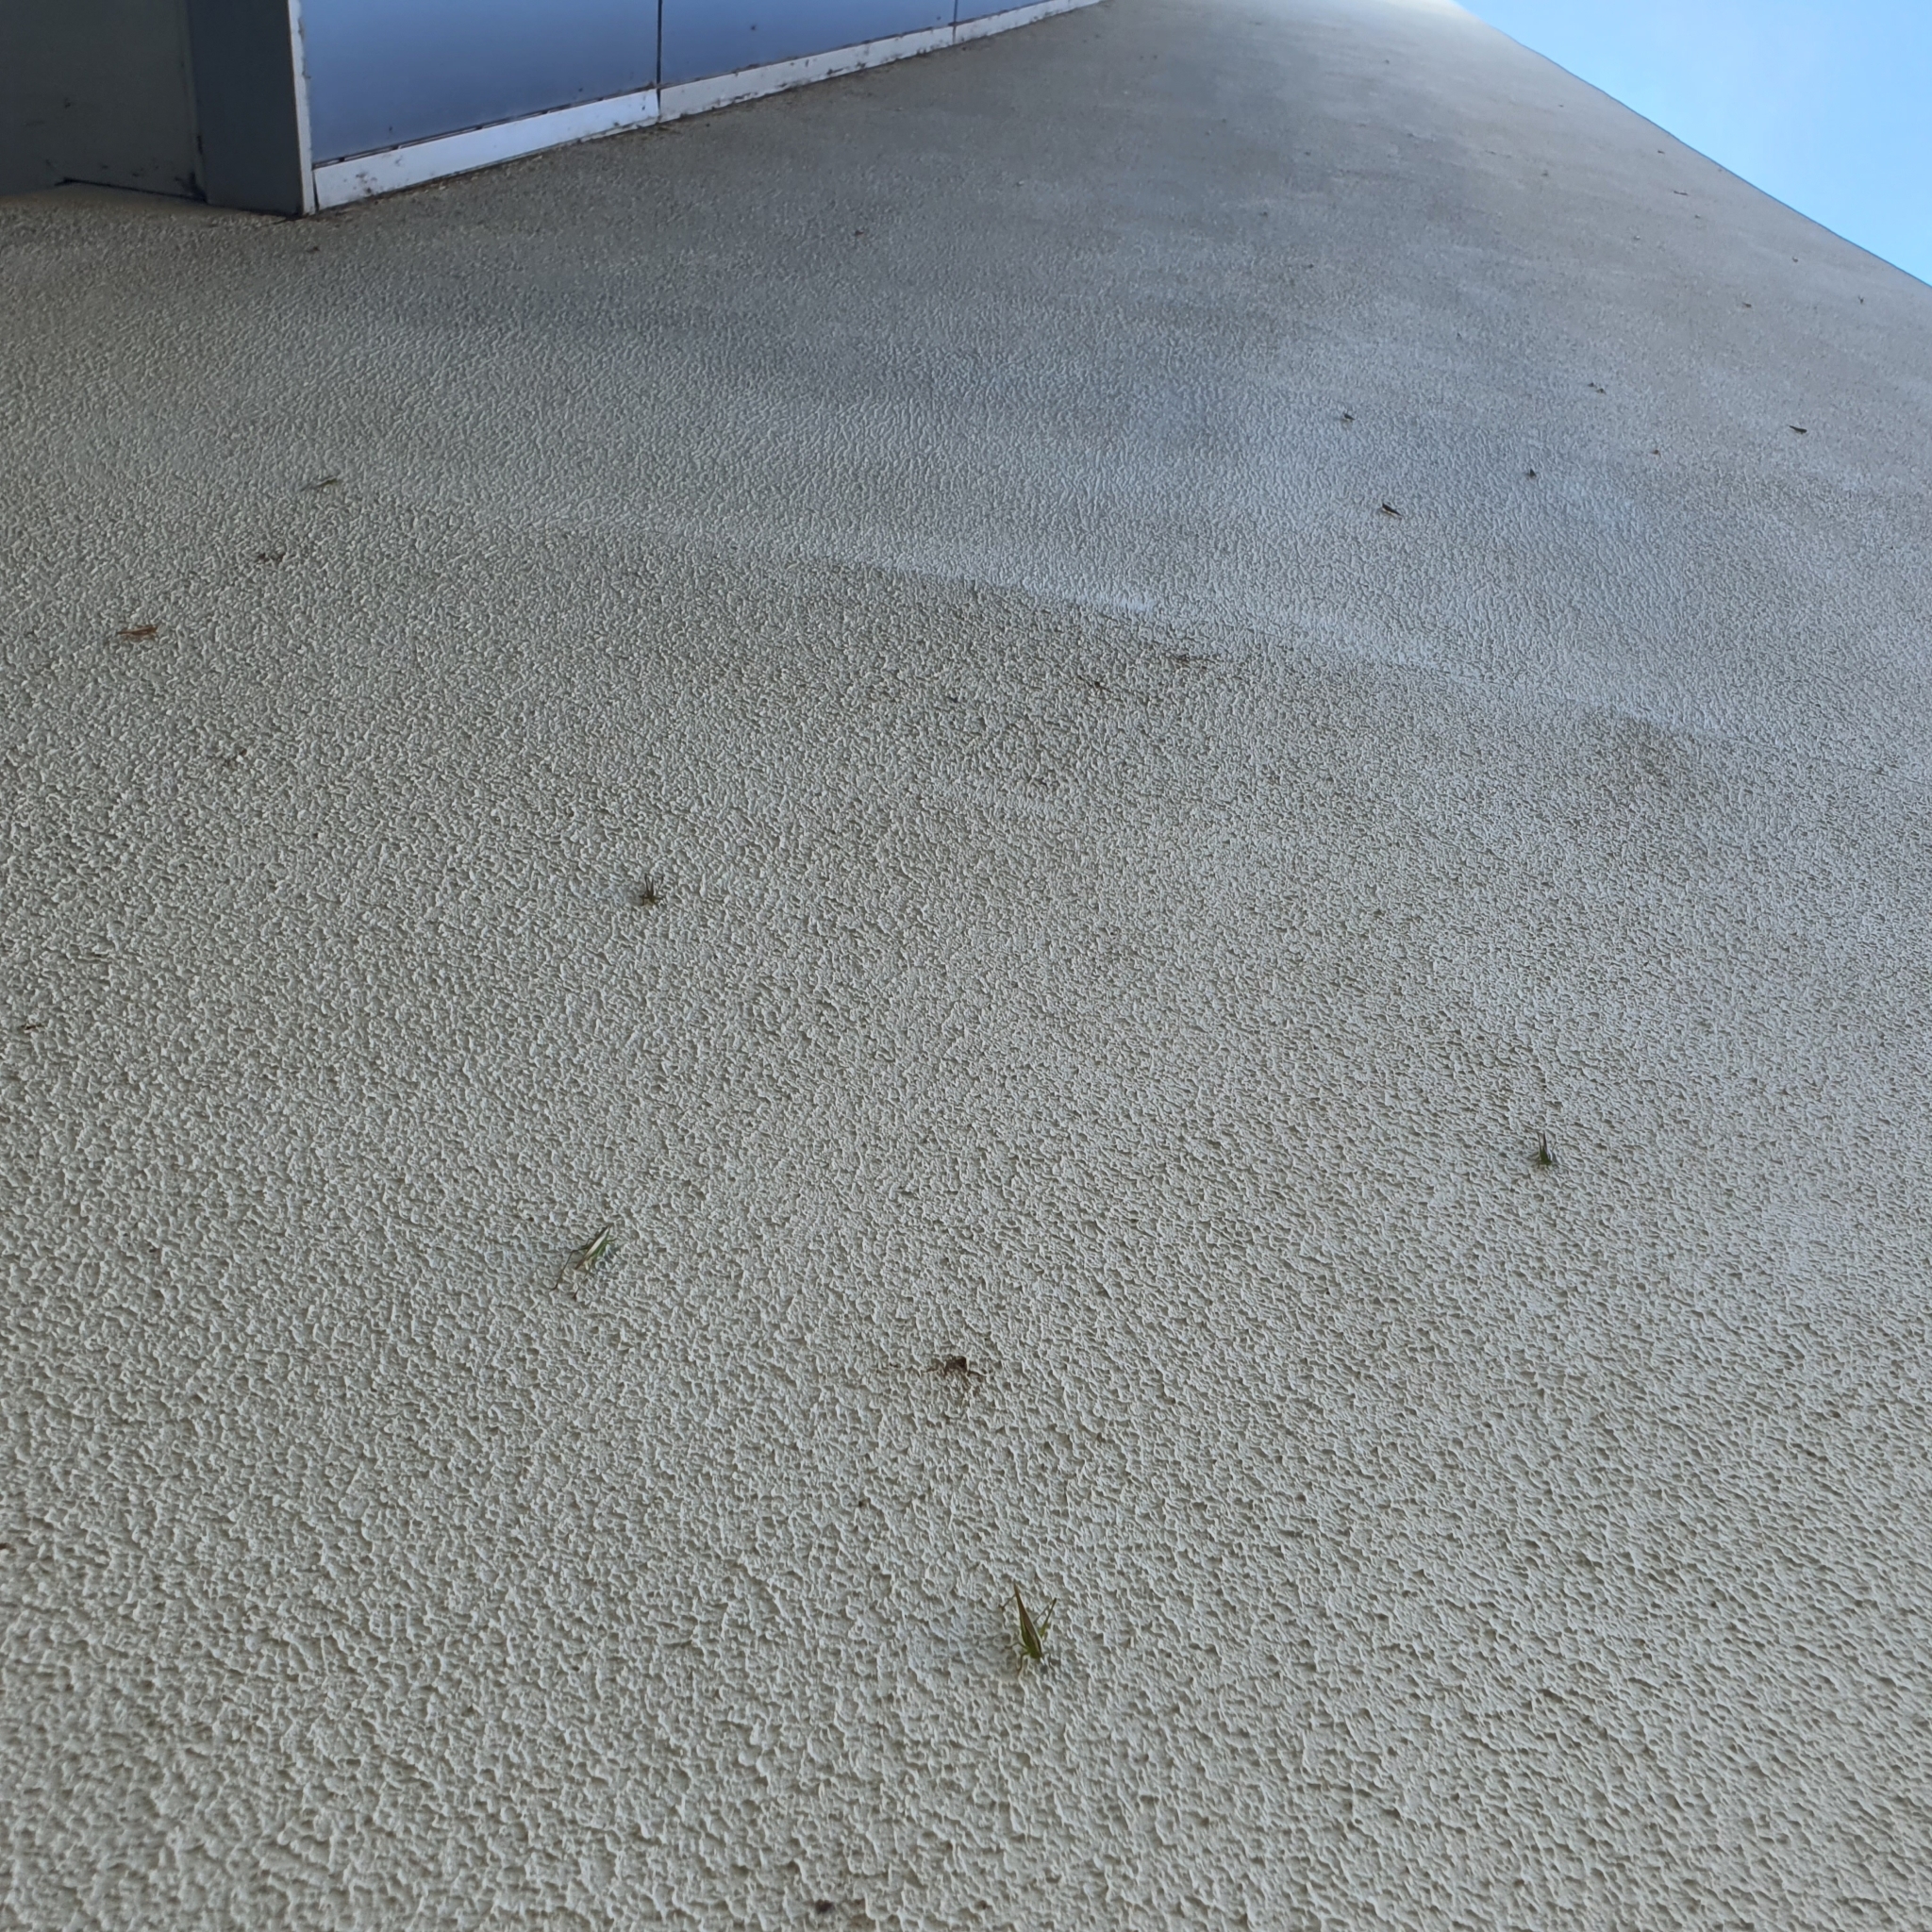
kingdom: Animalia
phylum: Arthropoda
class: Insecta
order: Orthoptera
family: Tettigoniidae
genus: Conocephalus
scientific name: Conocephalus upoluensis
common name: Upolu meadow katydid
